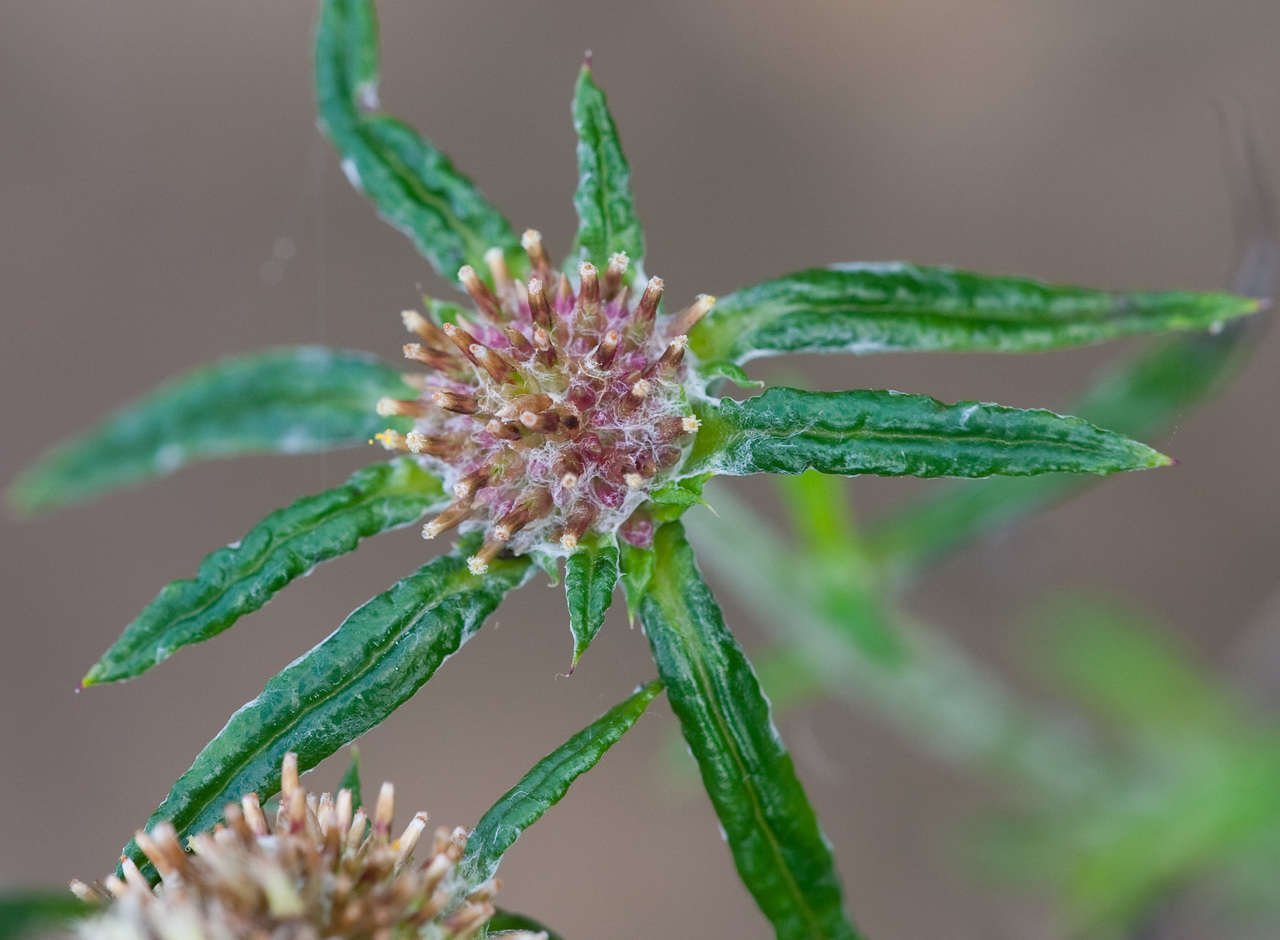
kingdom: Plantae
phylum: Tracheophyta
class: Magnoliopsida
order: Asterales
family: Asteraceae
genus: Euchiton
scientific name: Euchiton sphaericus
